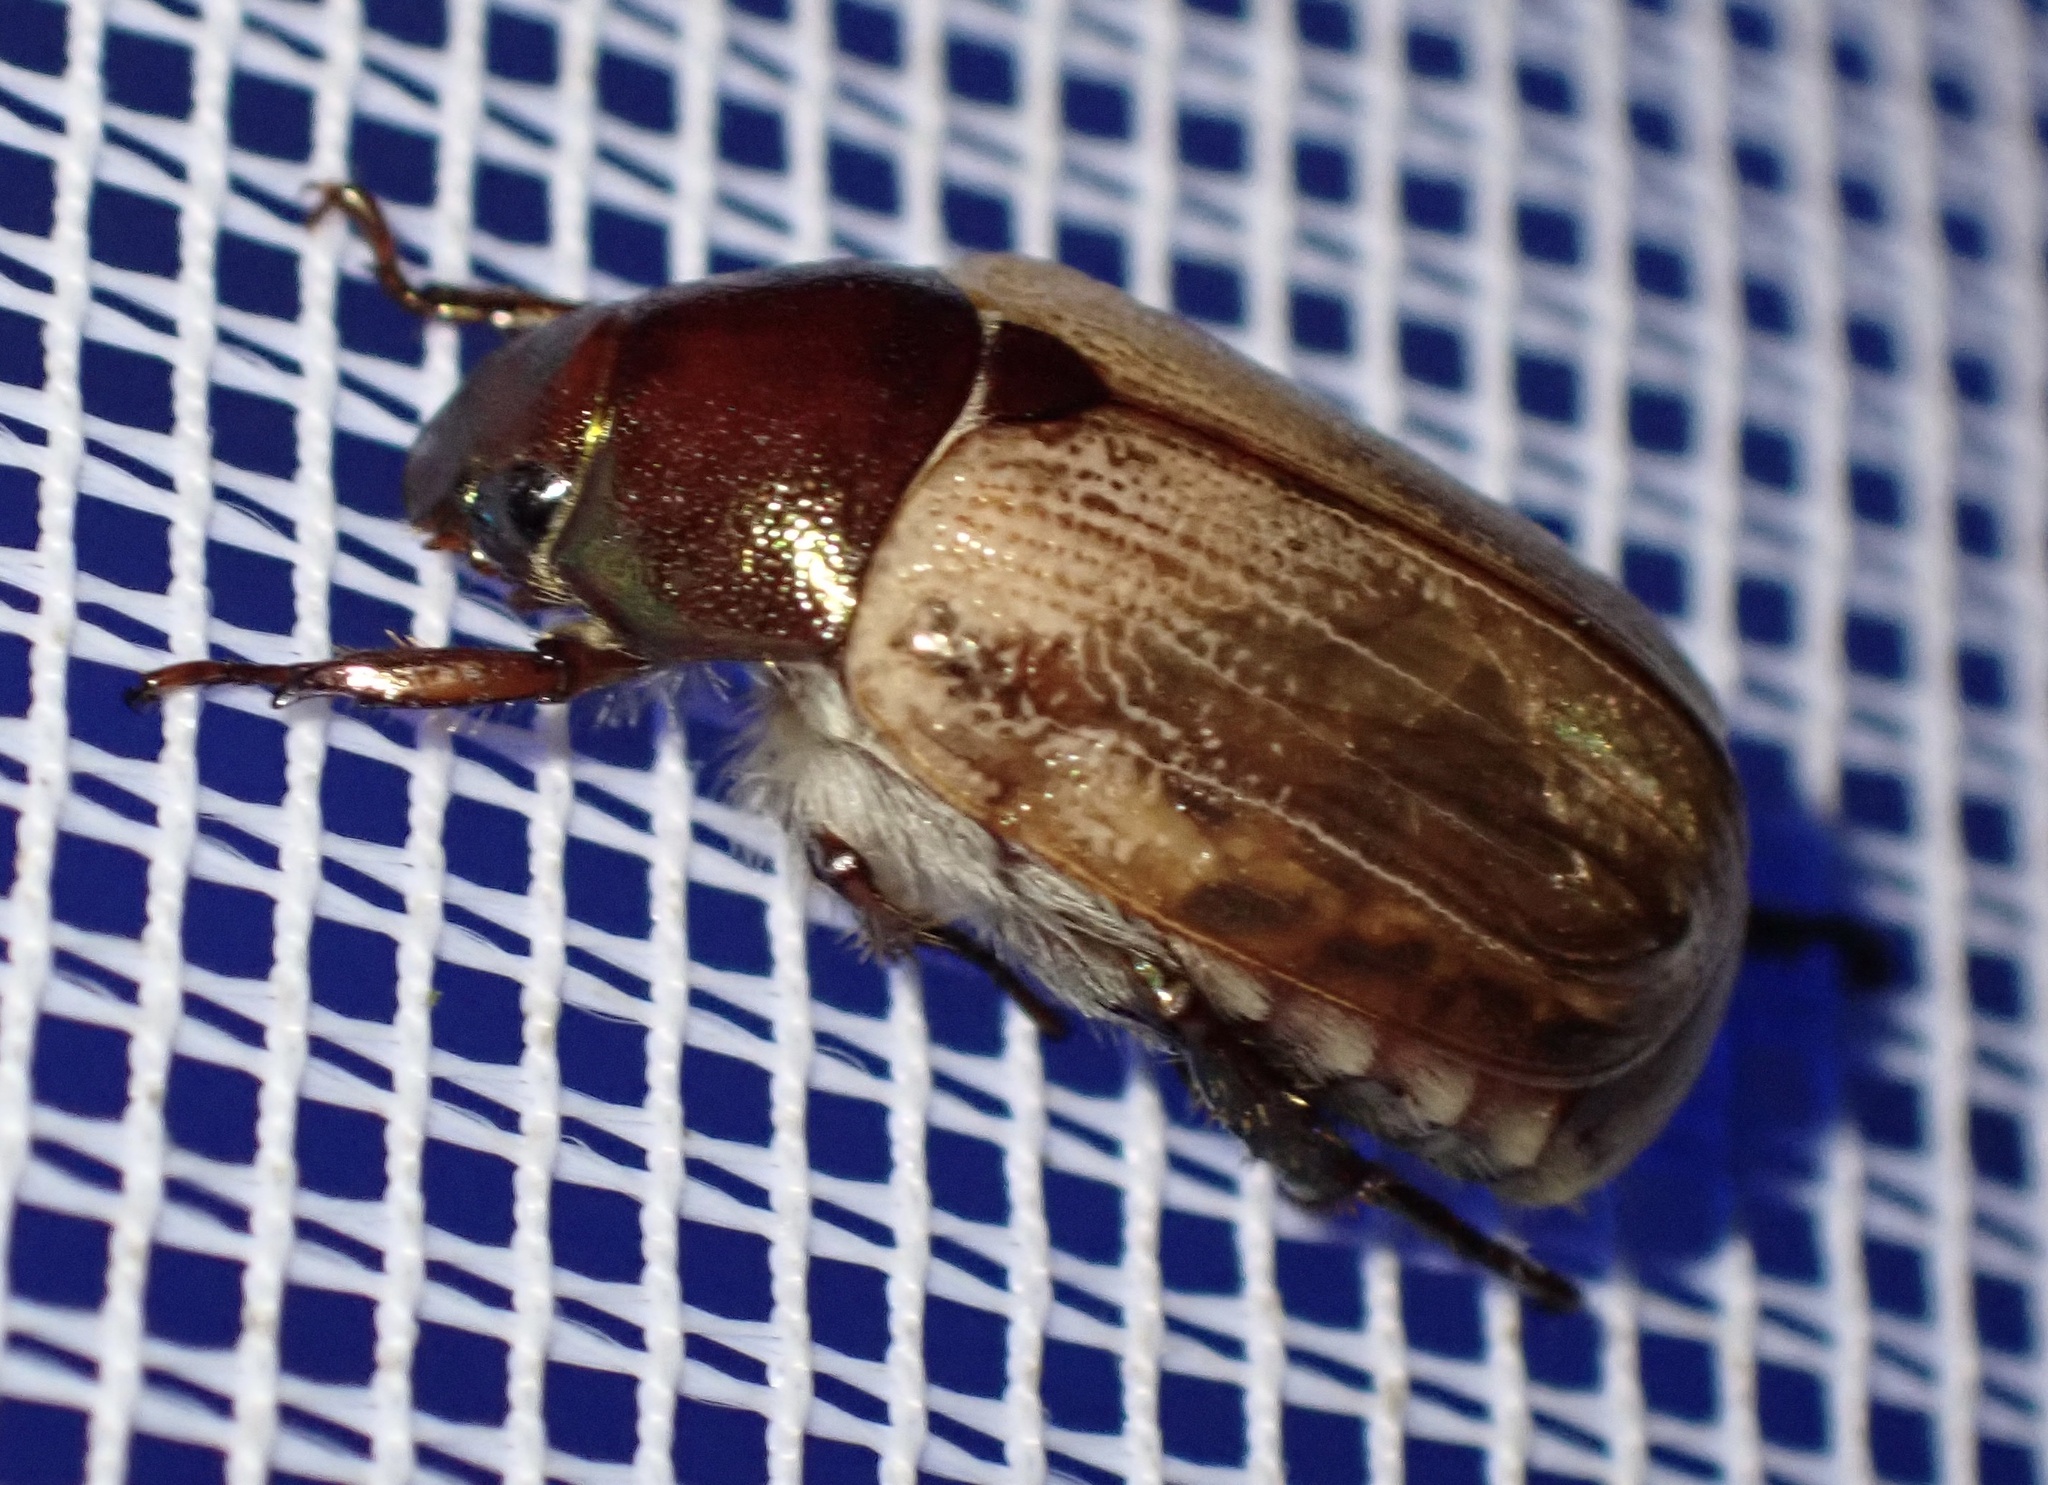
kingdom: Animalia
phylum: Arthropoda
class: Insecta
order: Coleoptera
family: Scarabaeidae
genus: Anomala
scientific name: Anomala brachycaula
